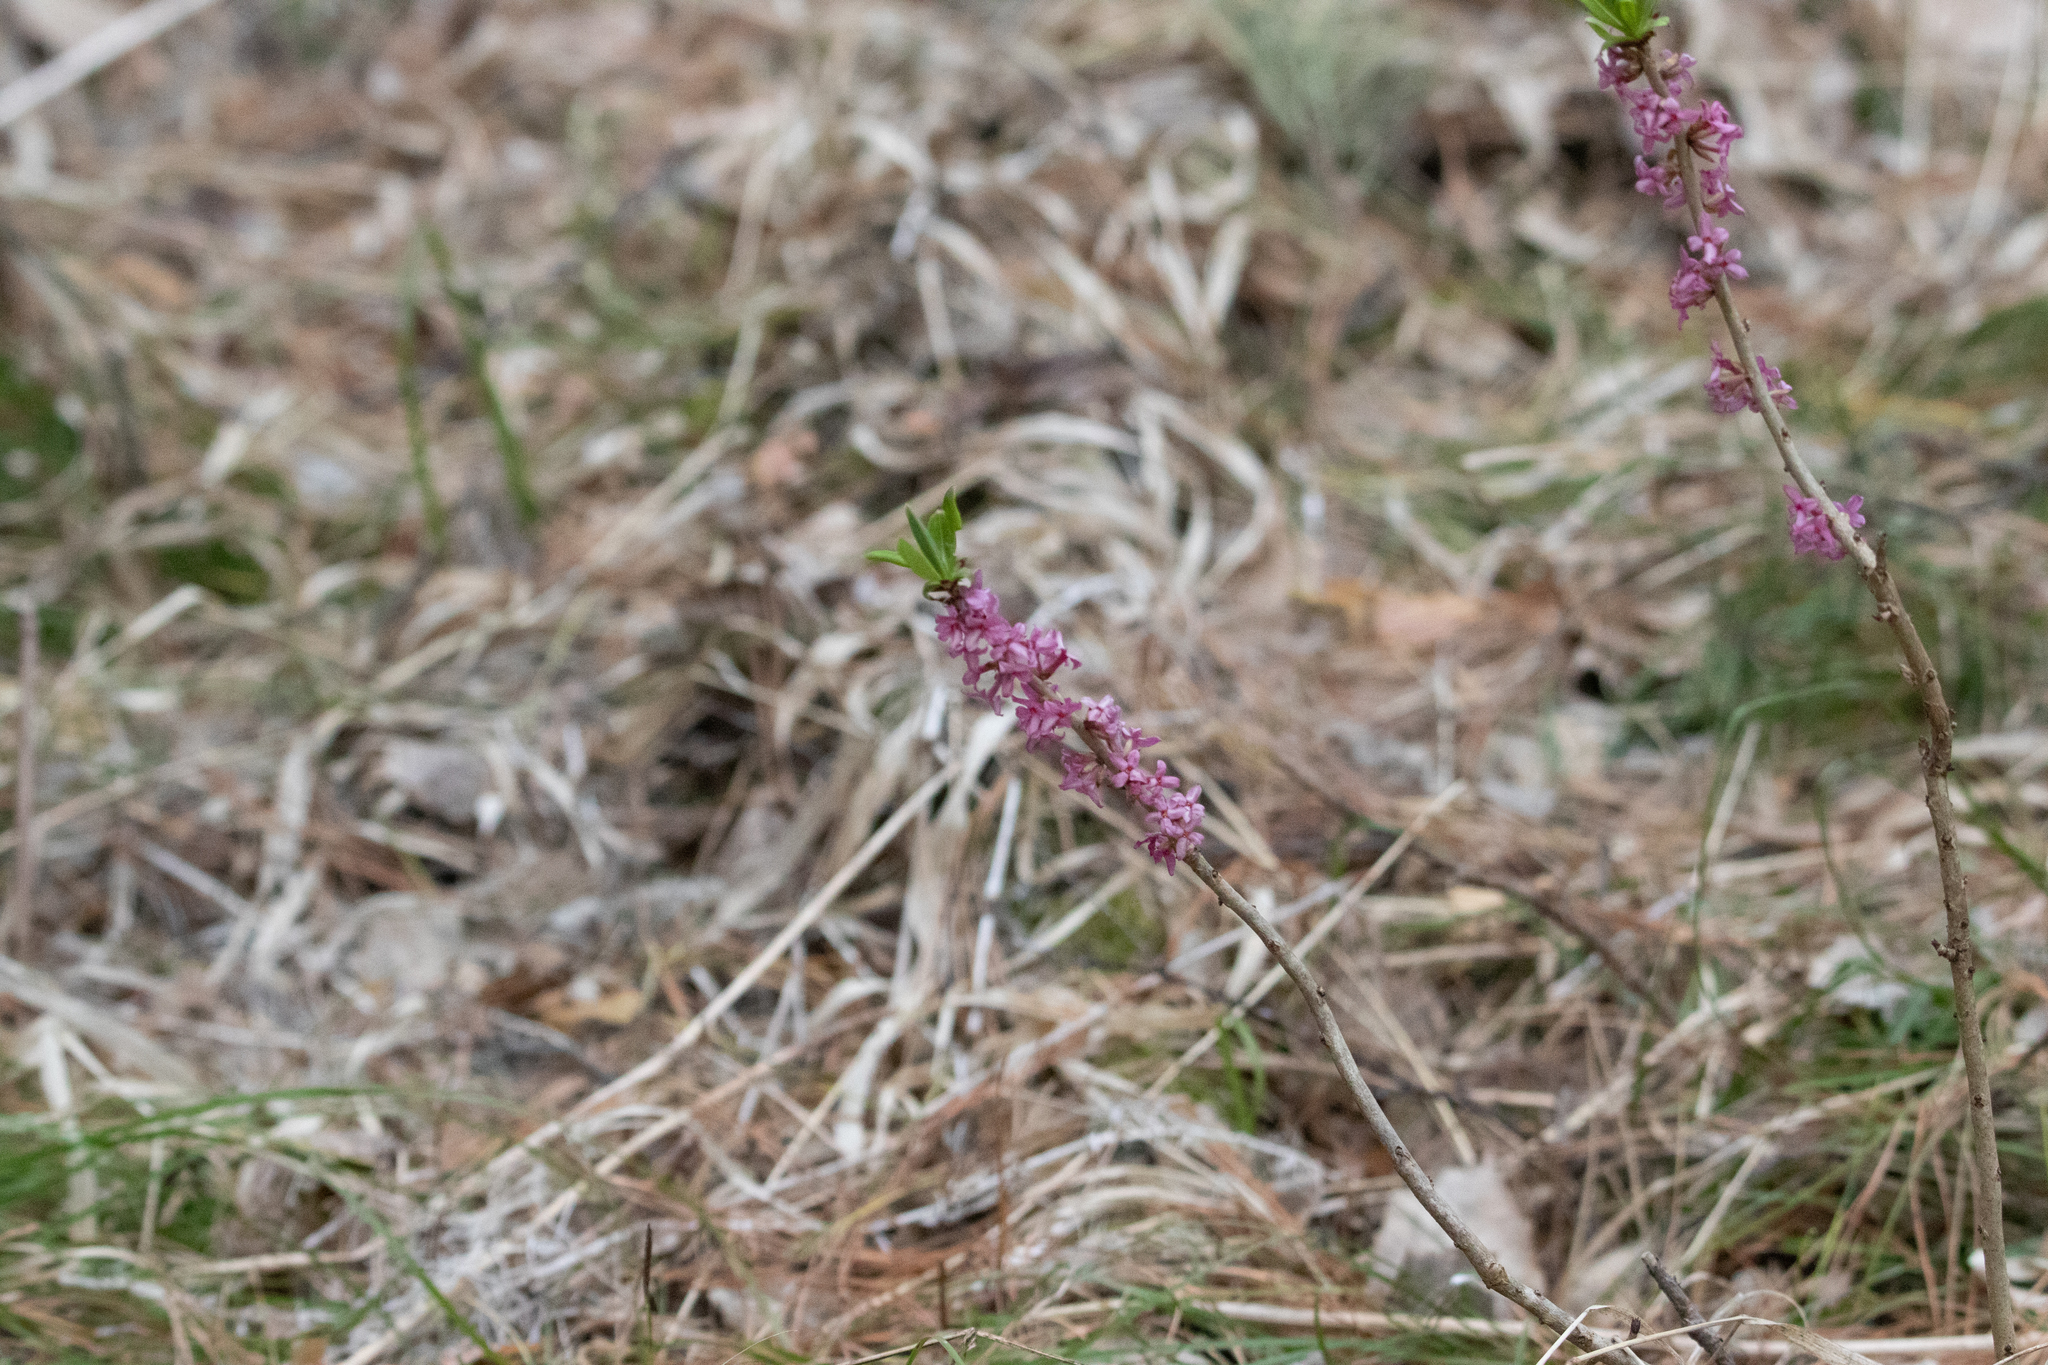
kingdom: Plantae
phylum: Tracheophyta
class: Magnoliopsida
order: Malvales
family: Thymelaeaceae
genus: Daphne
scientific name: Daphne mezereum
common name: Mezereon
